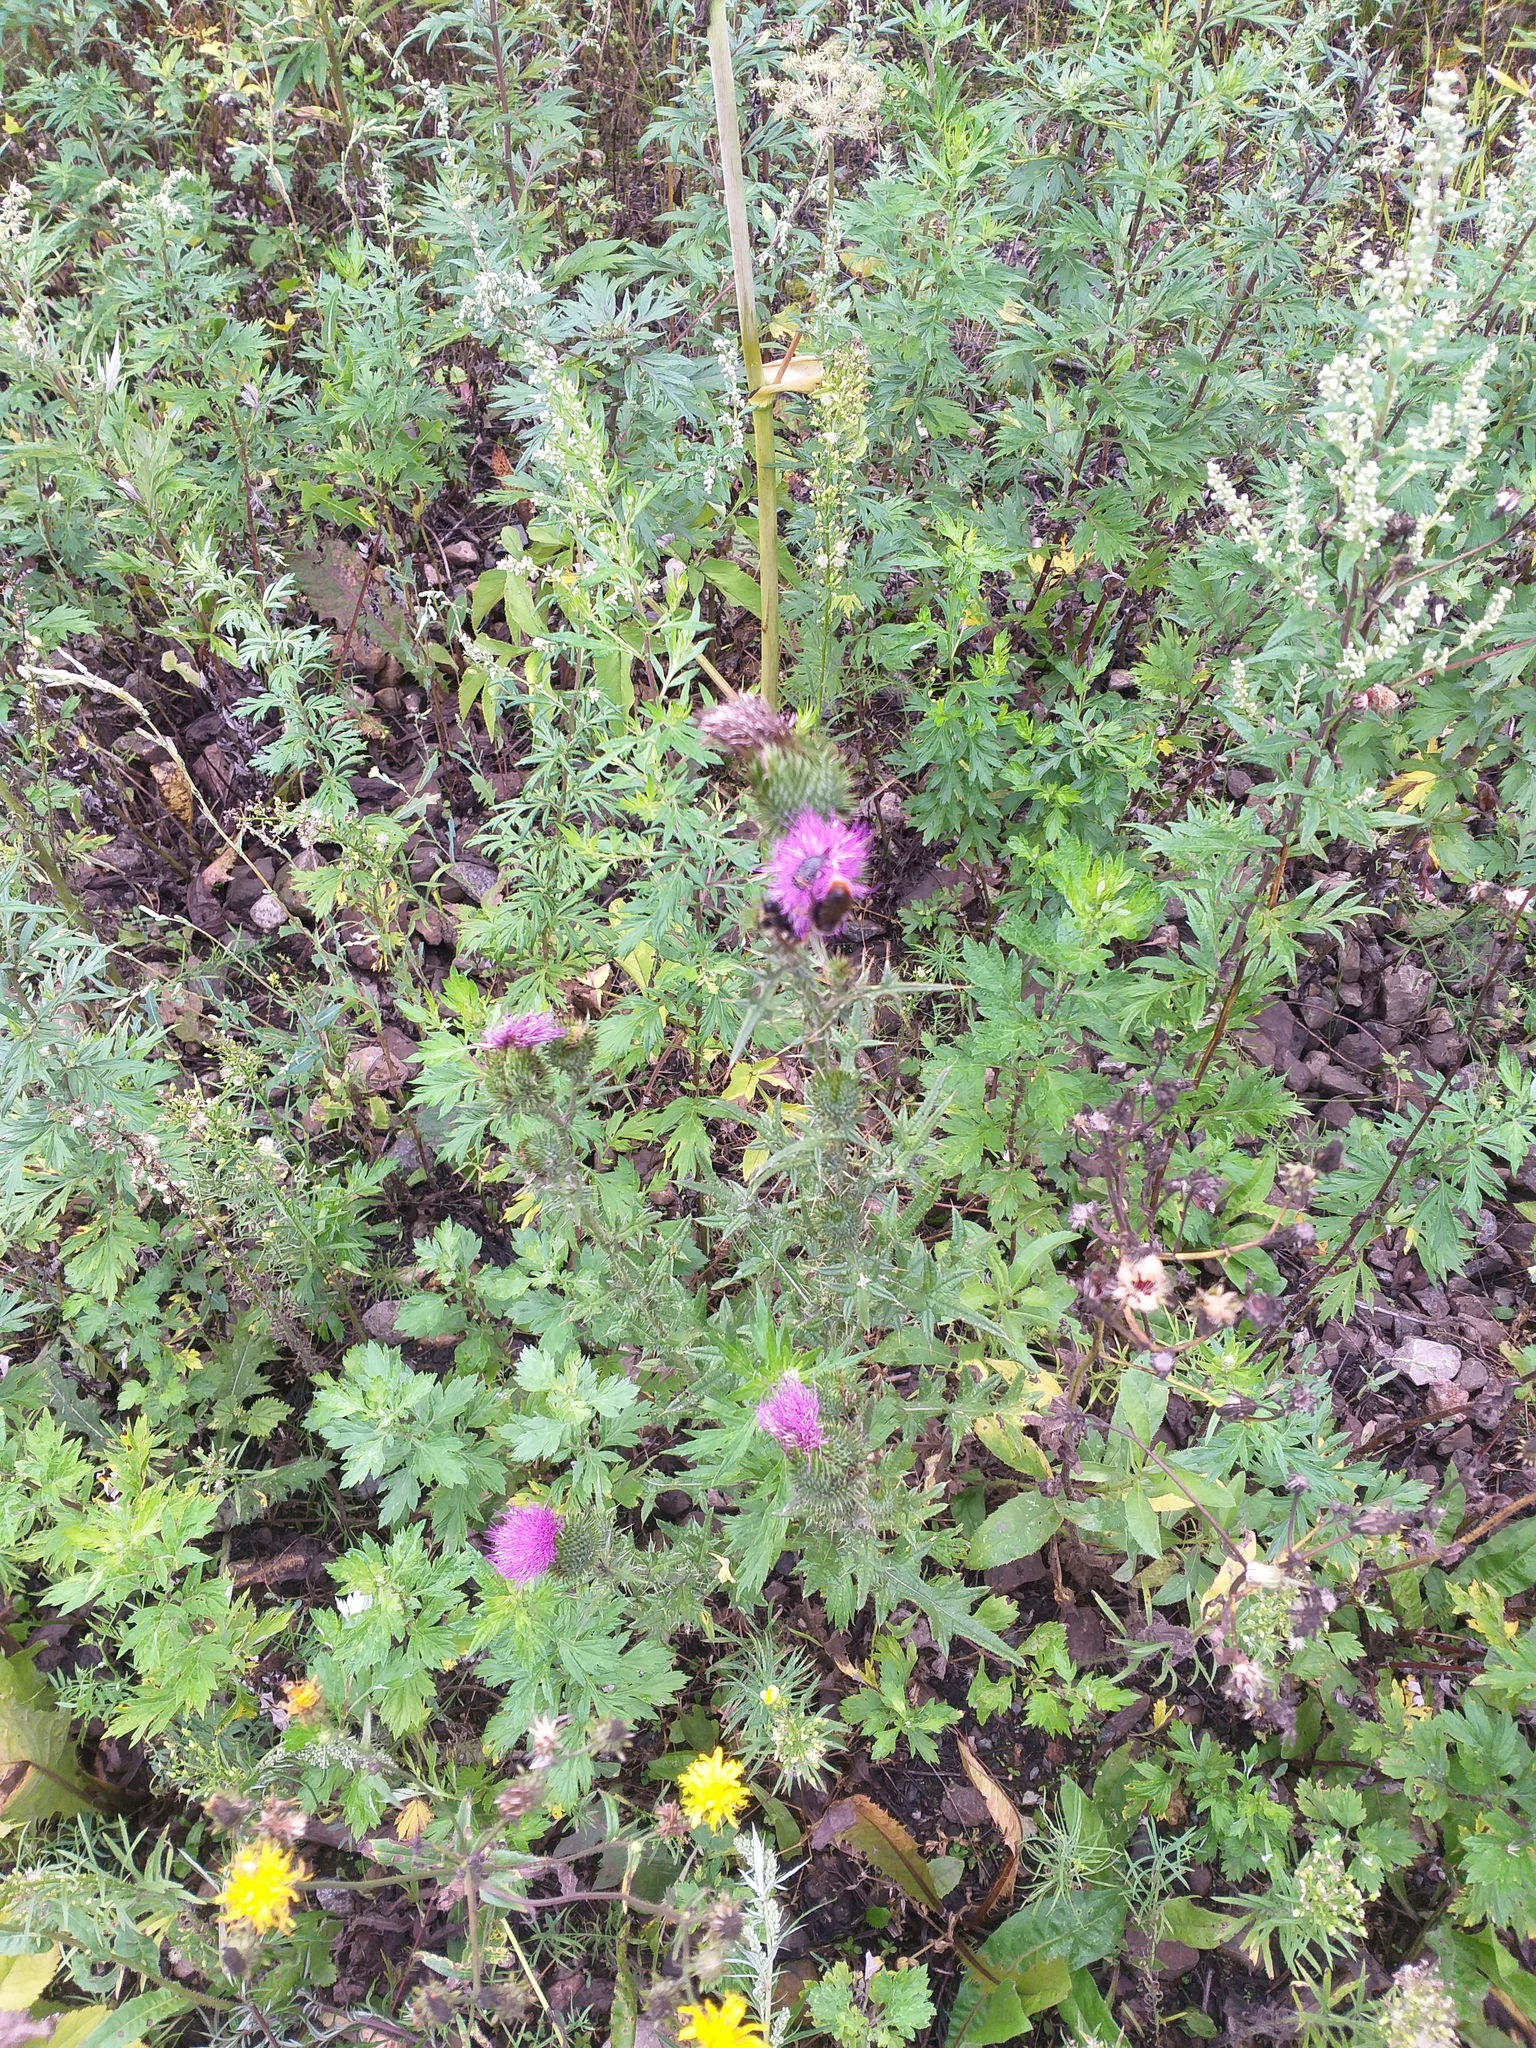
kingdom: Plantae
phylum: Tracheophyta
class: Magnoliopsida
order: Asterales
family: Asteraceae
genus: Cirsium
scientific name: Cirsium vulgare
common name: Bull thistle
